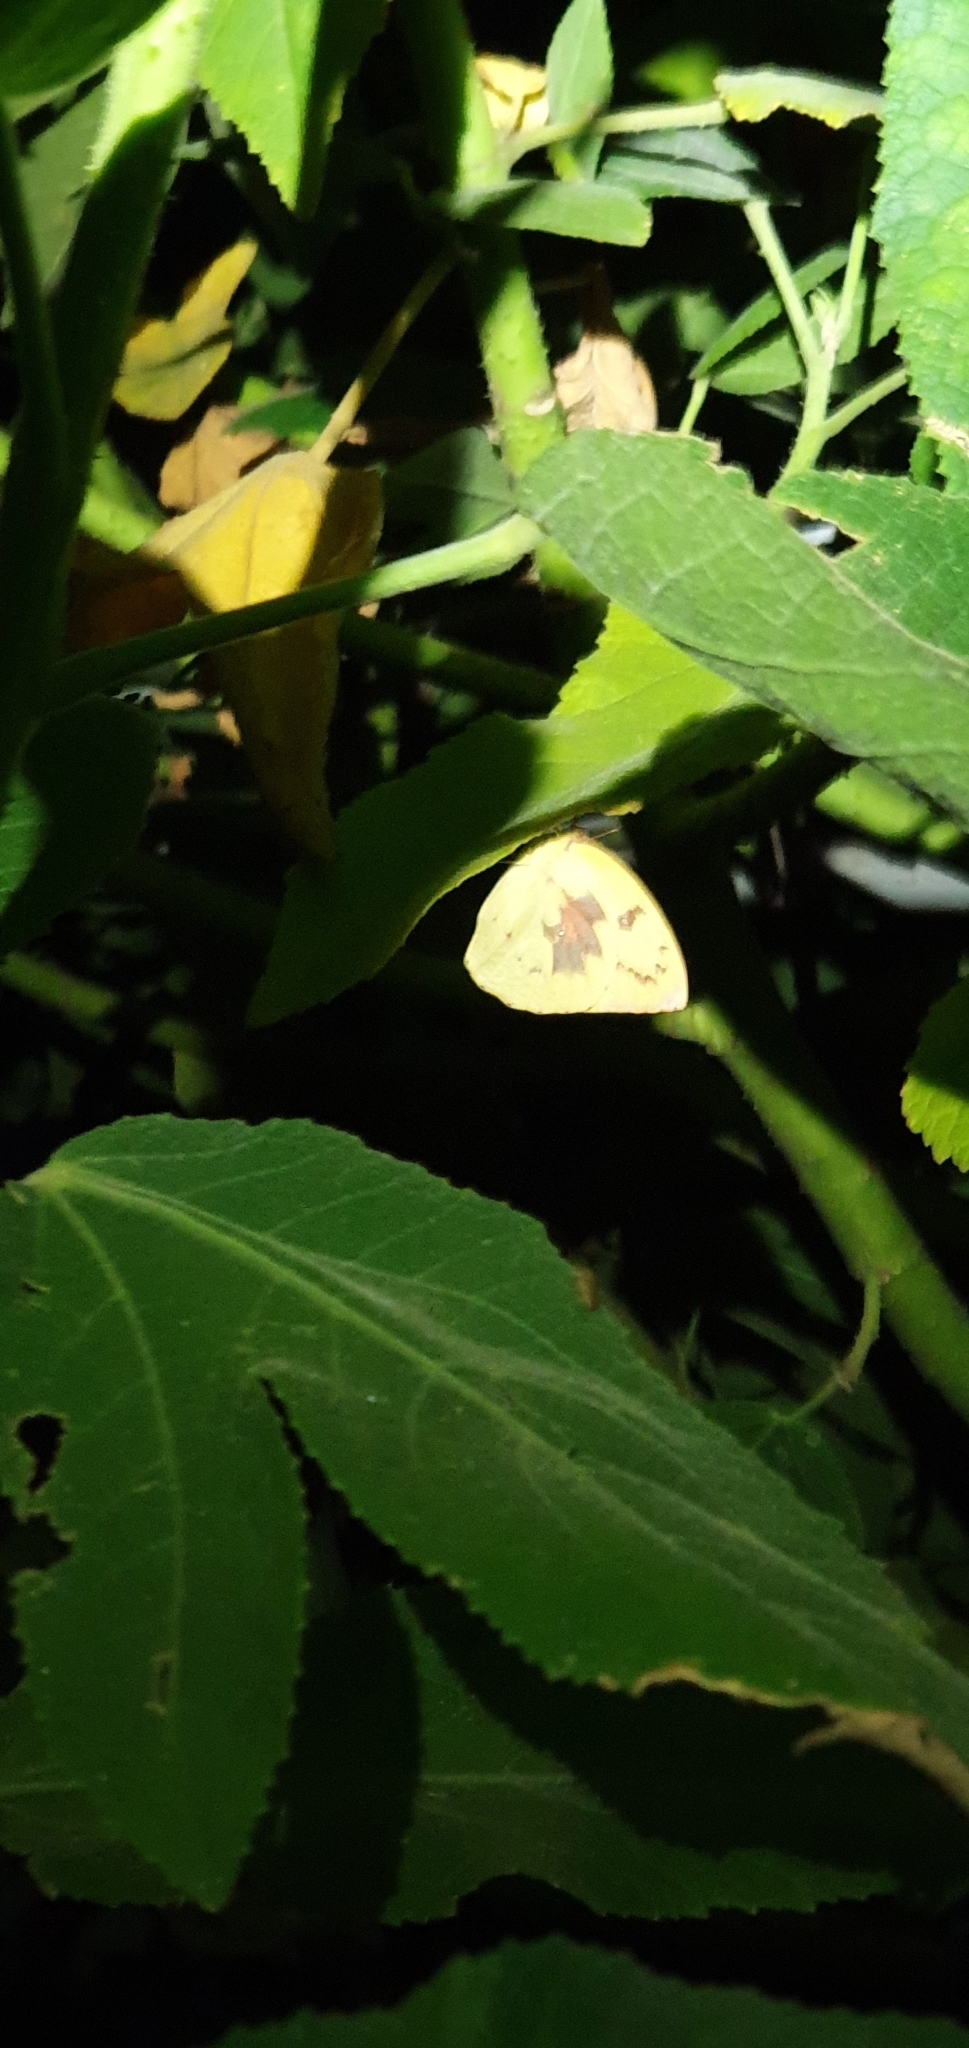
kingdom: Animalia
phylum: Arthropoda
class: Insecta
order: Lepidoptera
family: Pieridae
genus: Catopsilia
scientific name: Catopsilia pomona
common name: Common emigrant
